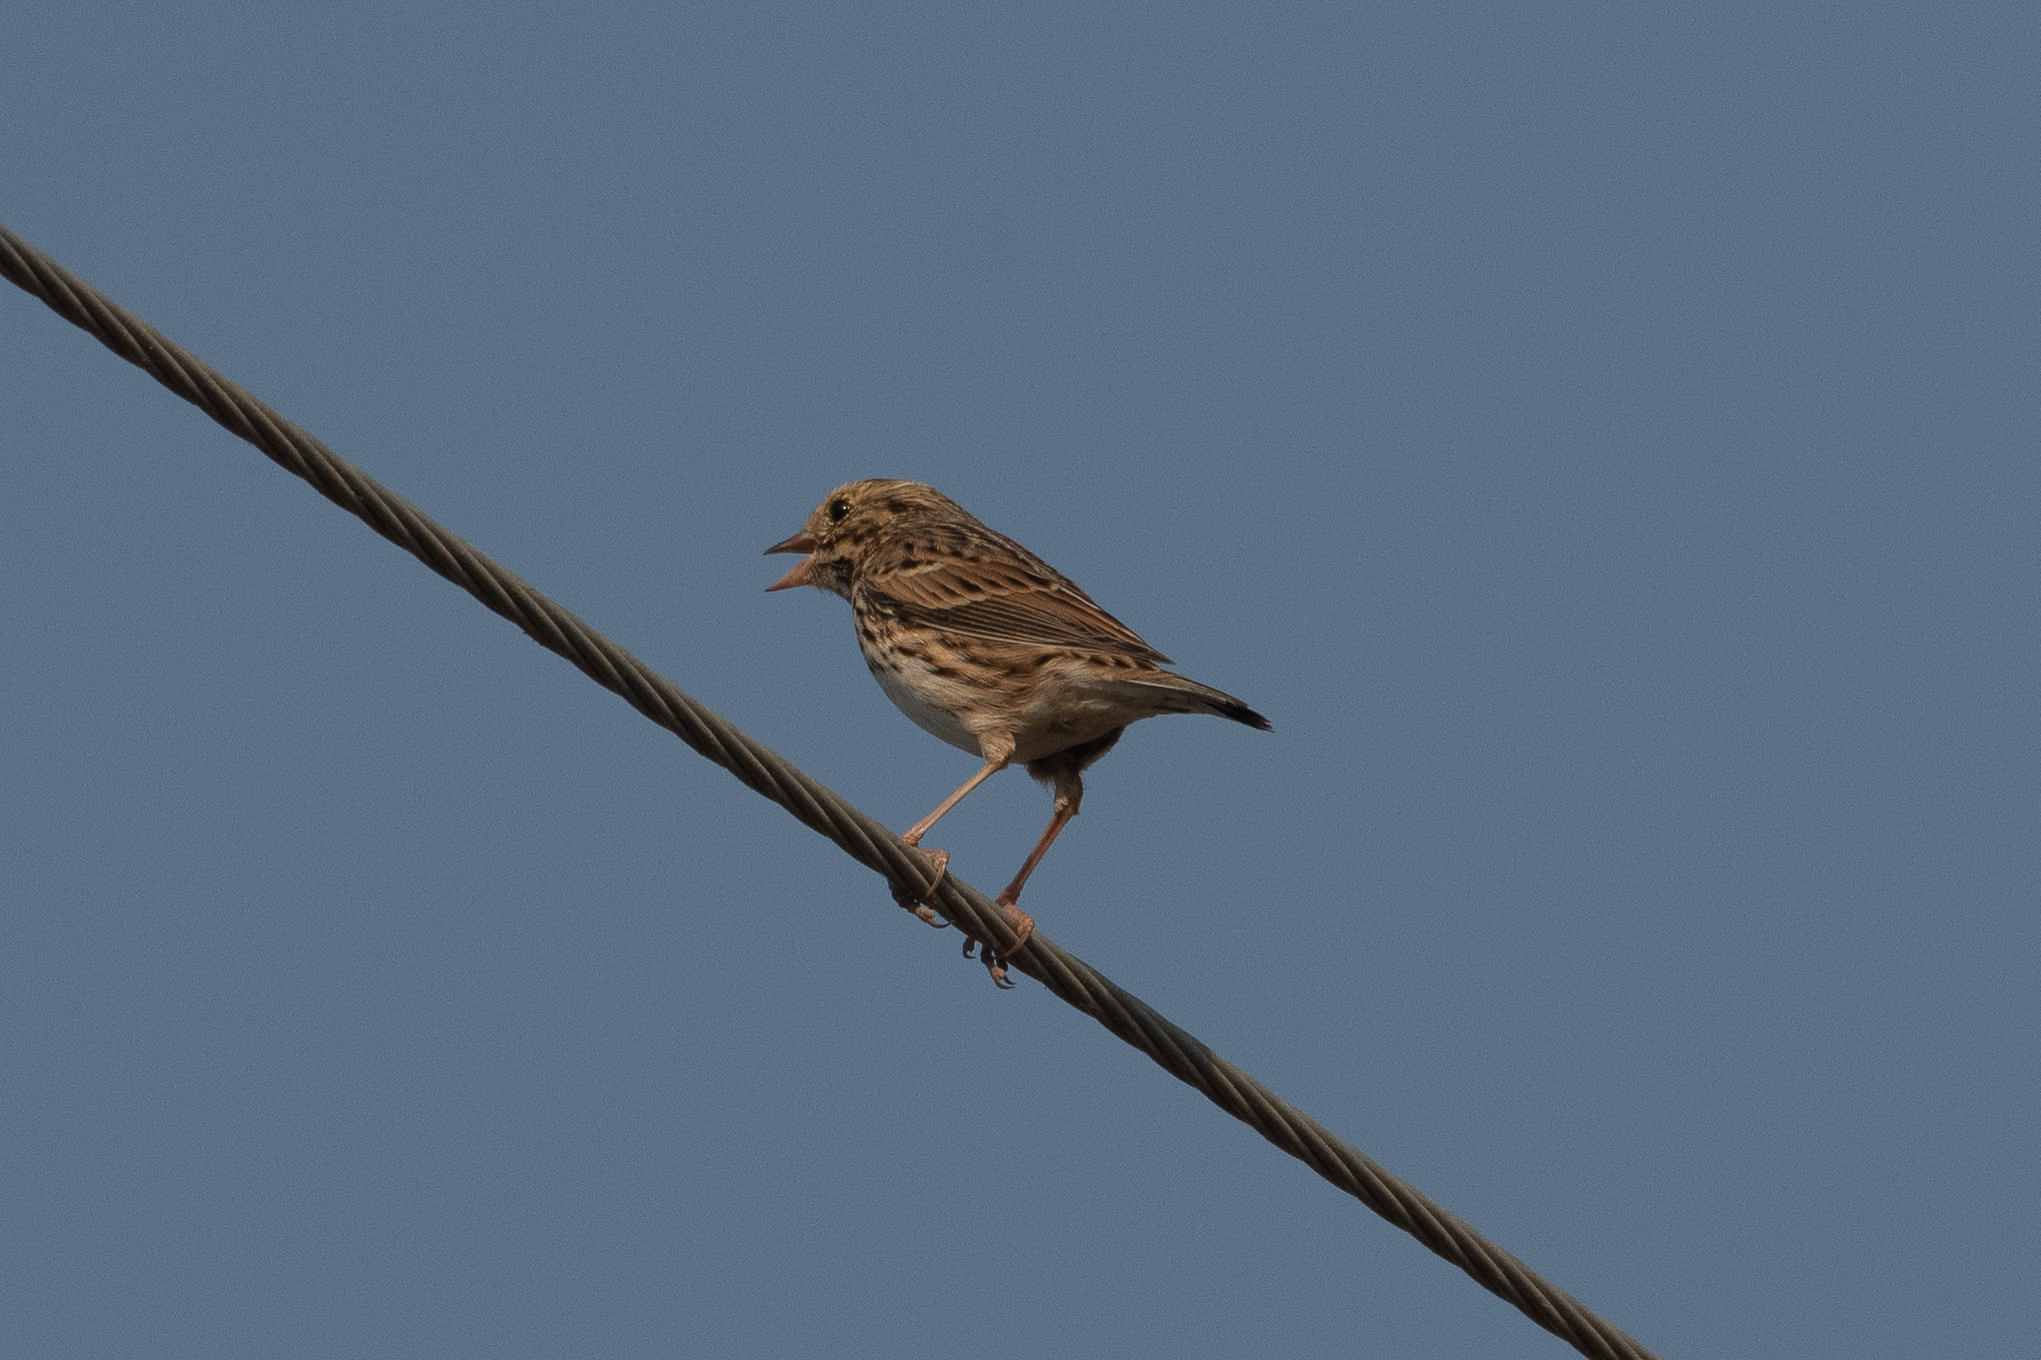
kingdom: Animalia
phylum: Chordata
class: Aves
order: Passeriformes
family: Passerellidae
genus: Passerculus
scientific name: Passerculus sandwichensis
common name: Savannah sparrow
